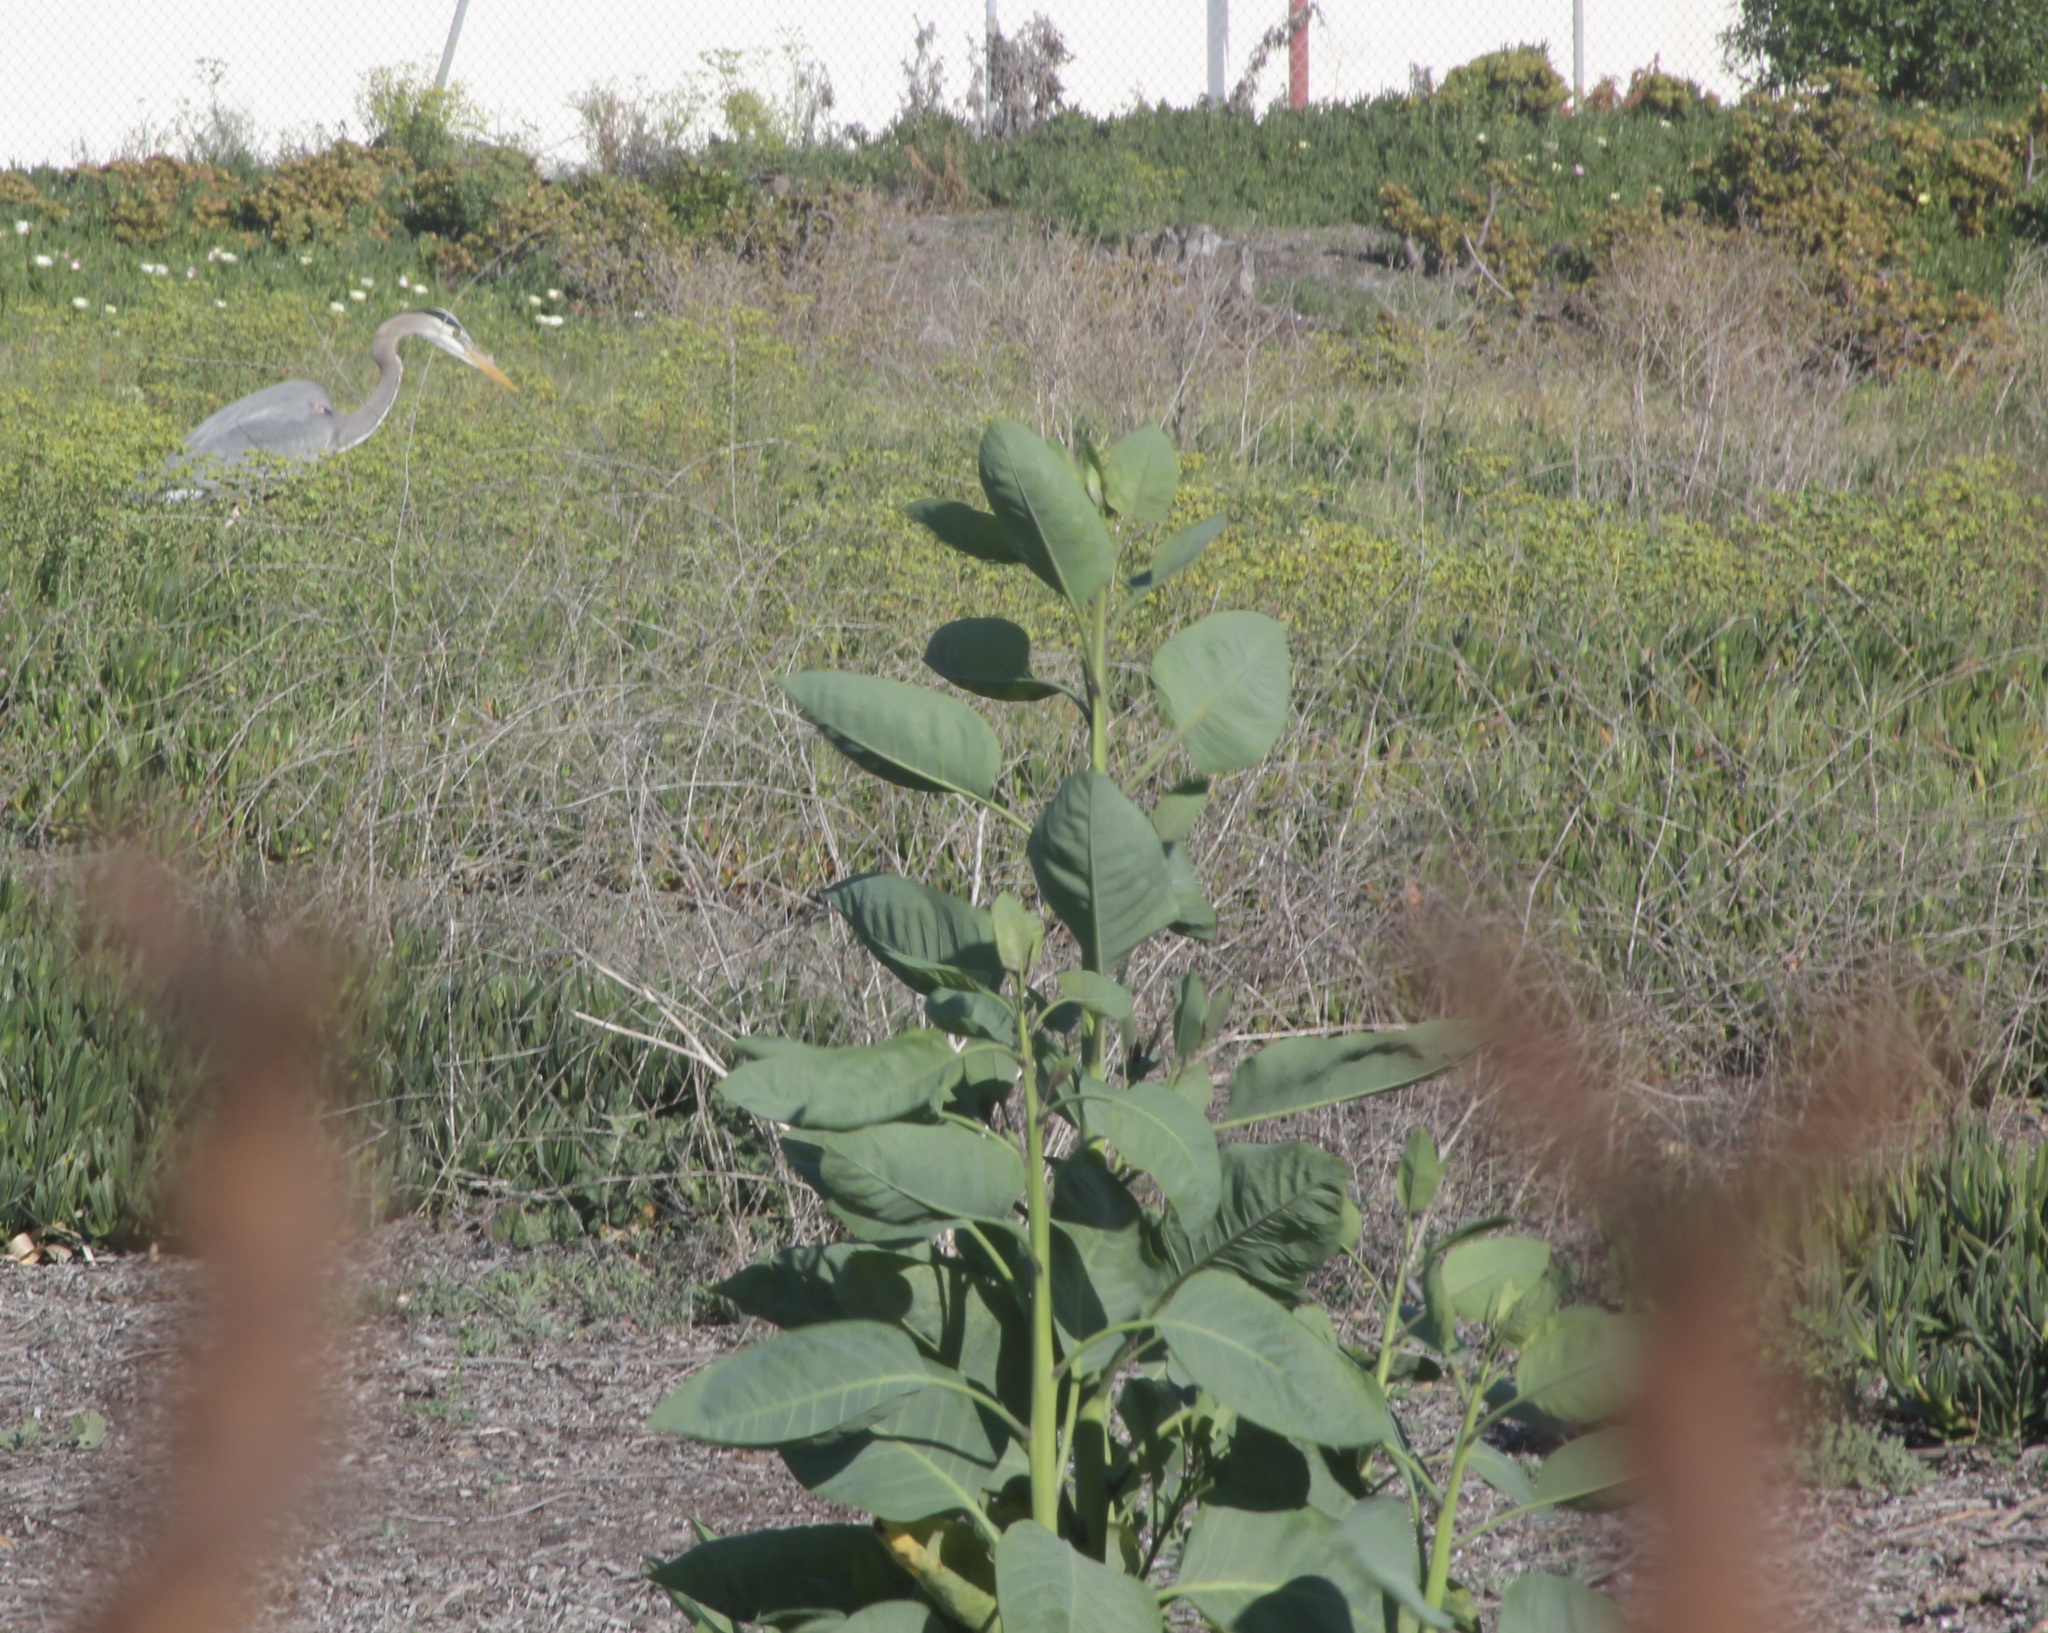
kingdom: Animalia
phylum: Chordata
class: Aves
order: Pelecaniformes
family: Ardeidae
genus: Ardea
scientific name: Ardea herodias
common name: Great blue heron
